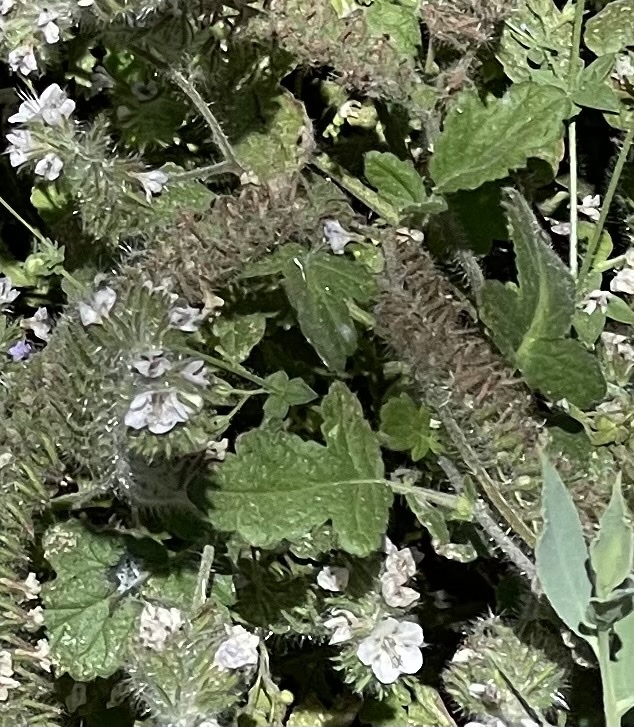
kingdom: Plantae
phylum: Tracheophyta
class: Magnoliopsida
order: Boraginales
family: Hydrophyllaceae
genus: Phacelia
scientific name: Phacelia cicutaria
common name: Caterpillar phacelia
